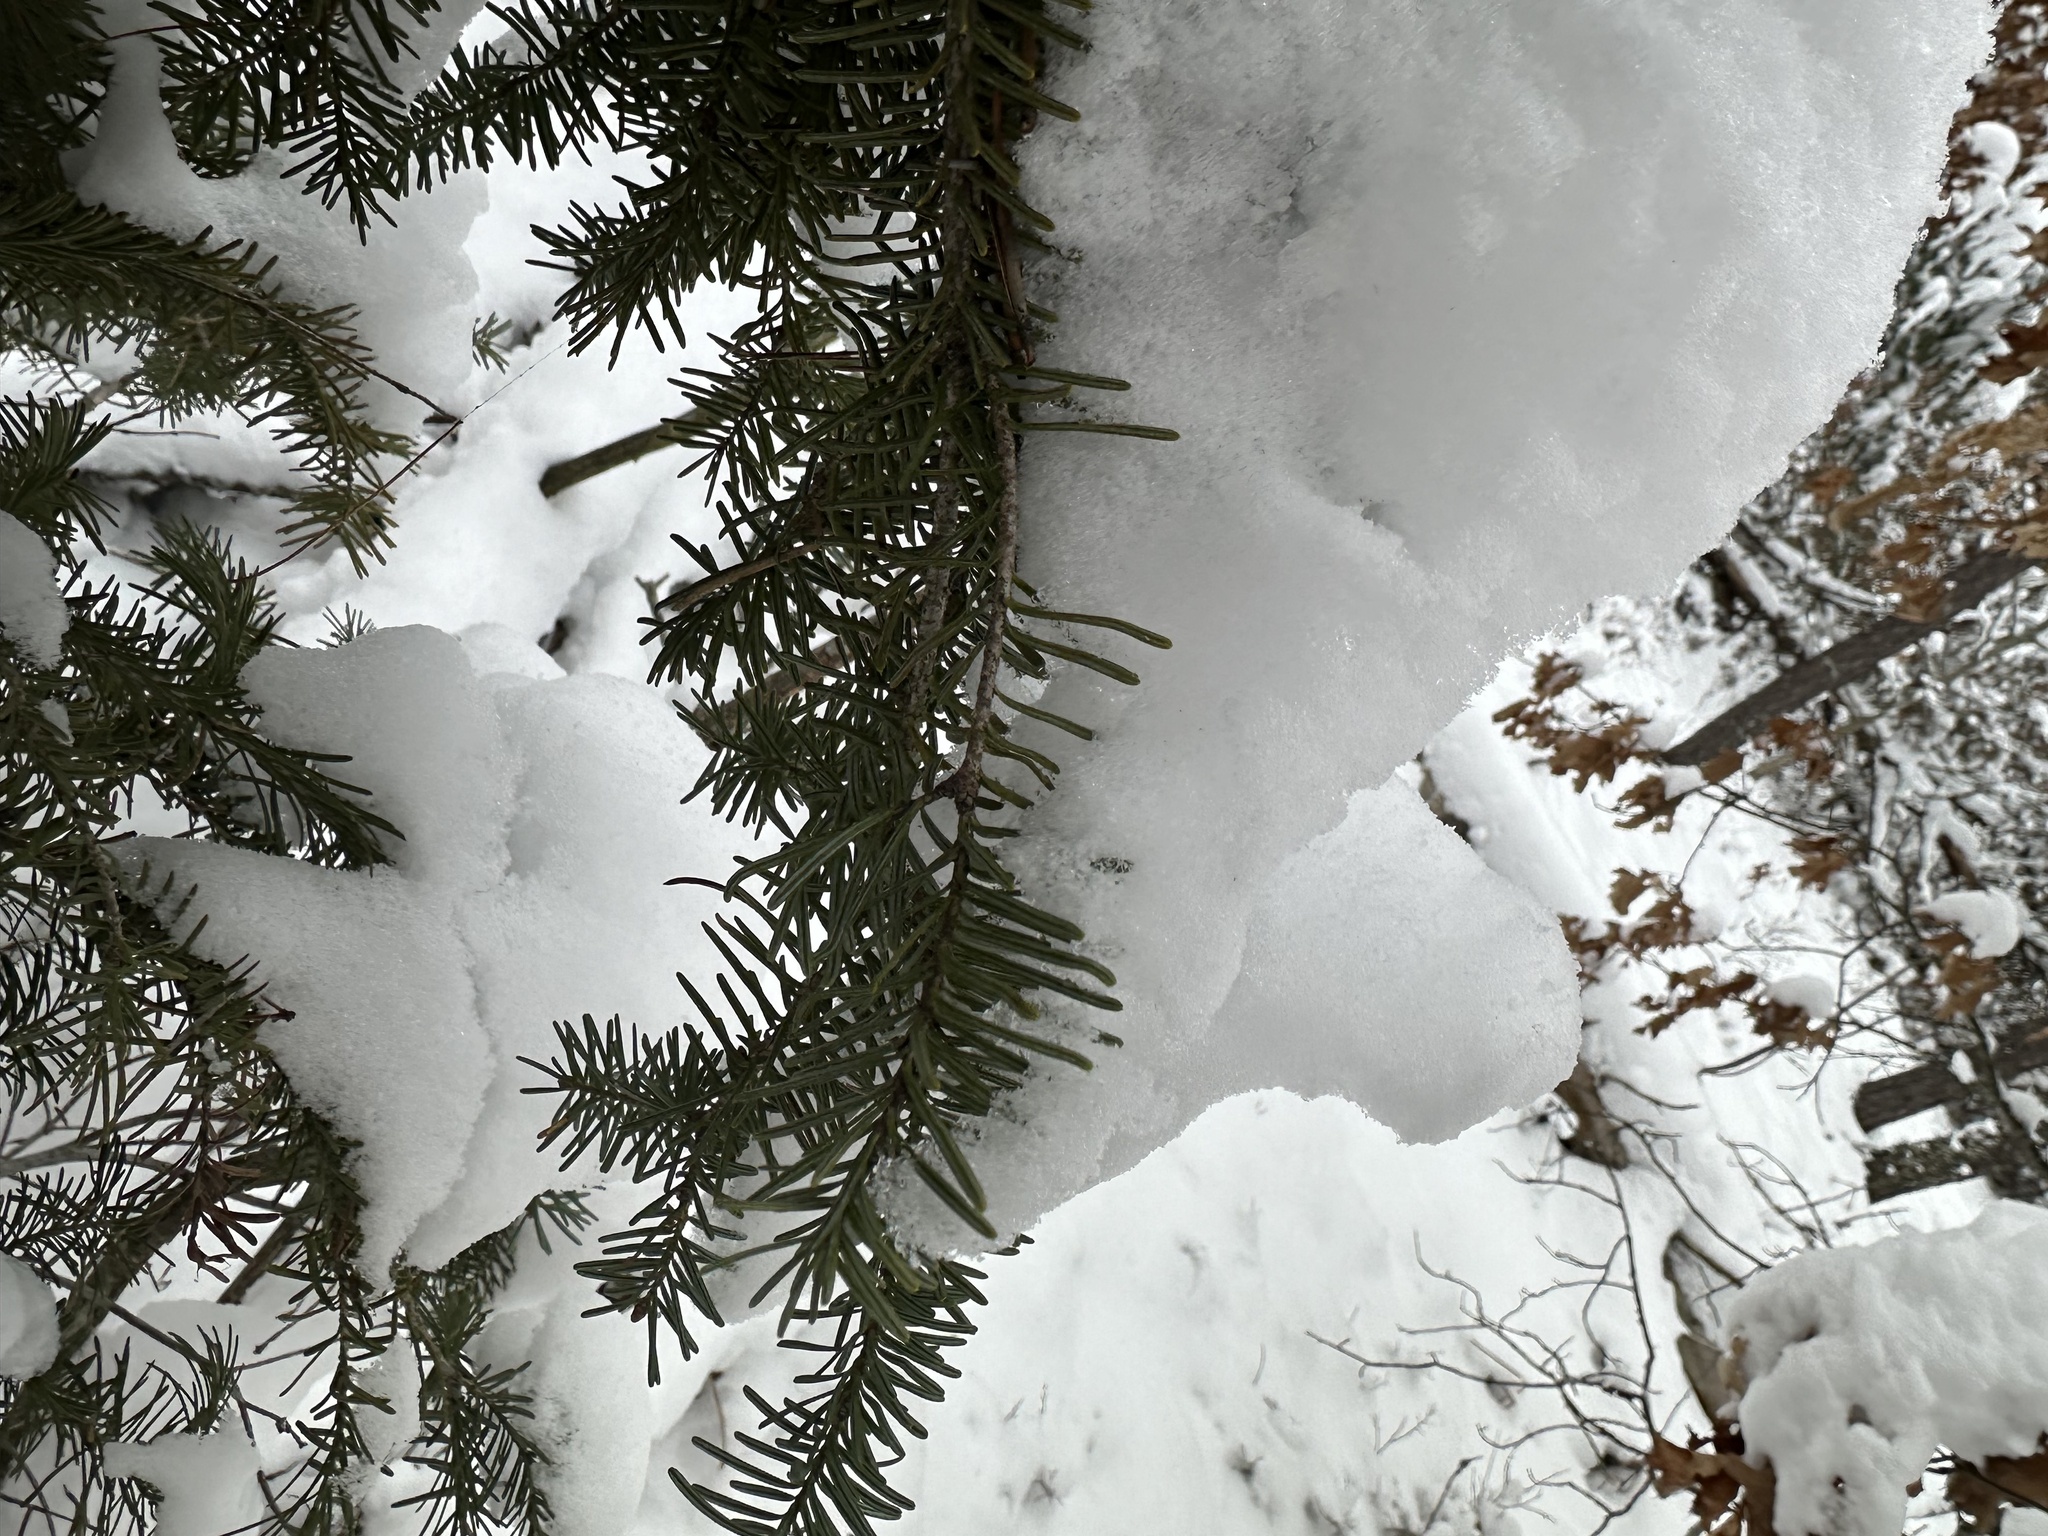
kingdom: Plantae
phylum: Tracheophyta
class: Pinopsida
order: Pinales
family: Pinaceae
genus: Abies
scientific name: Abies balsamea
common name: Balsam fir
